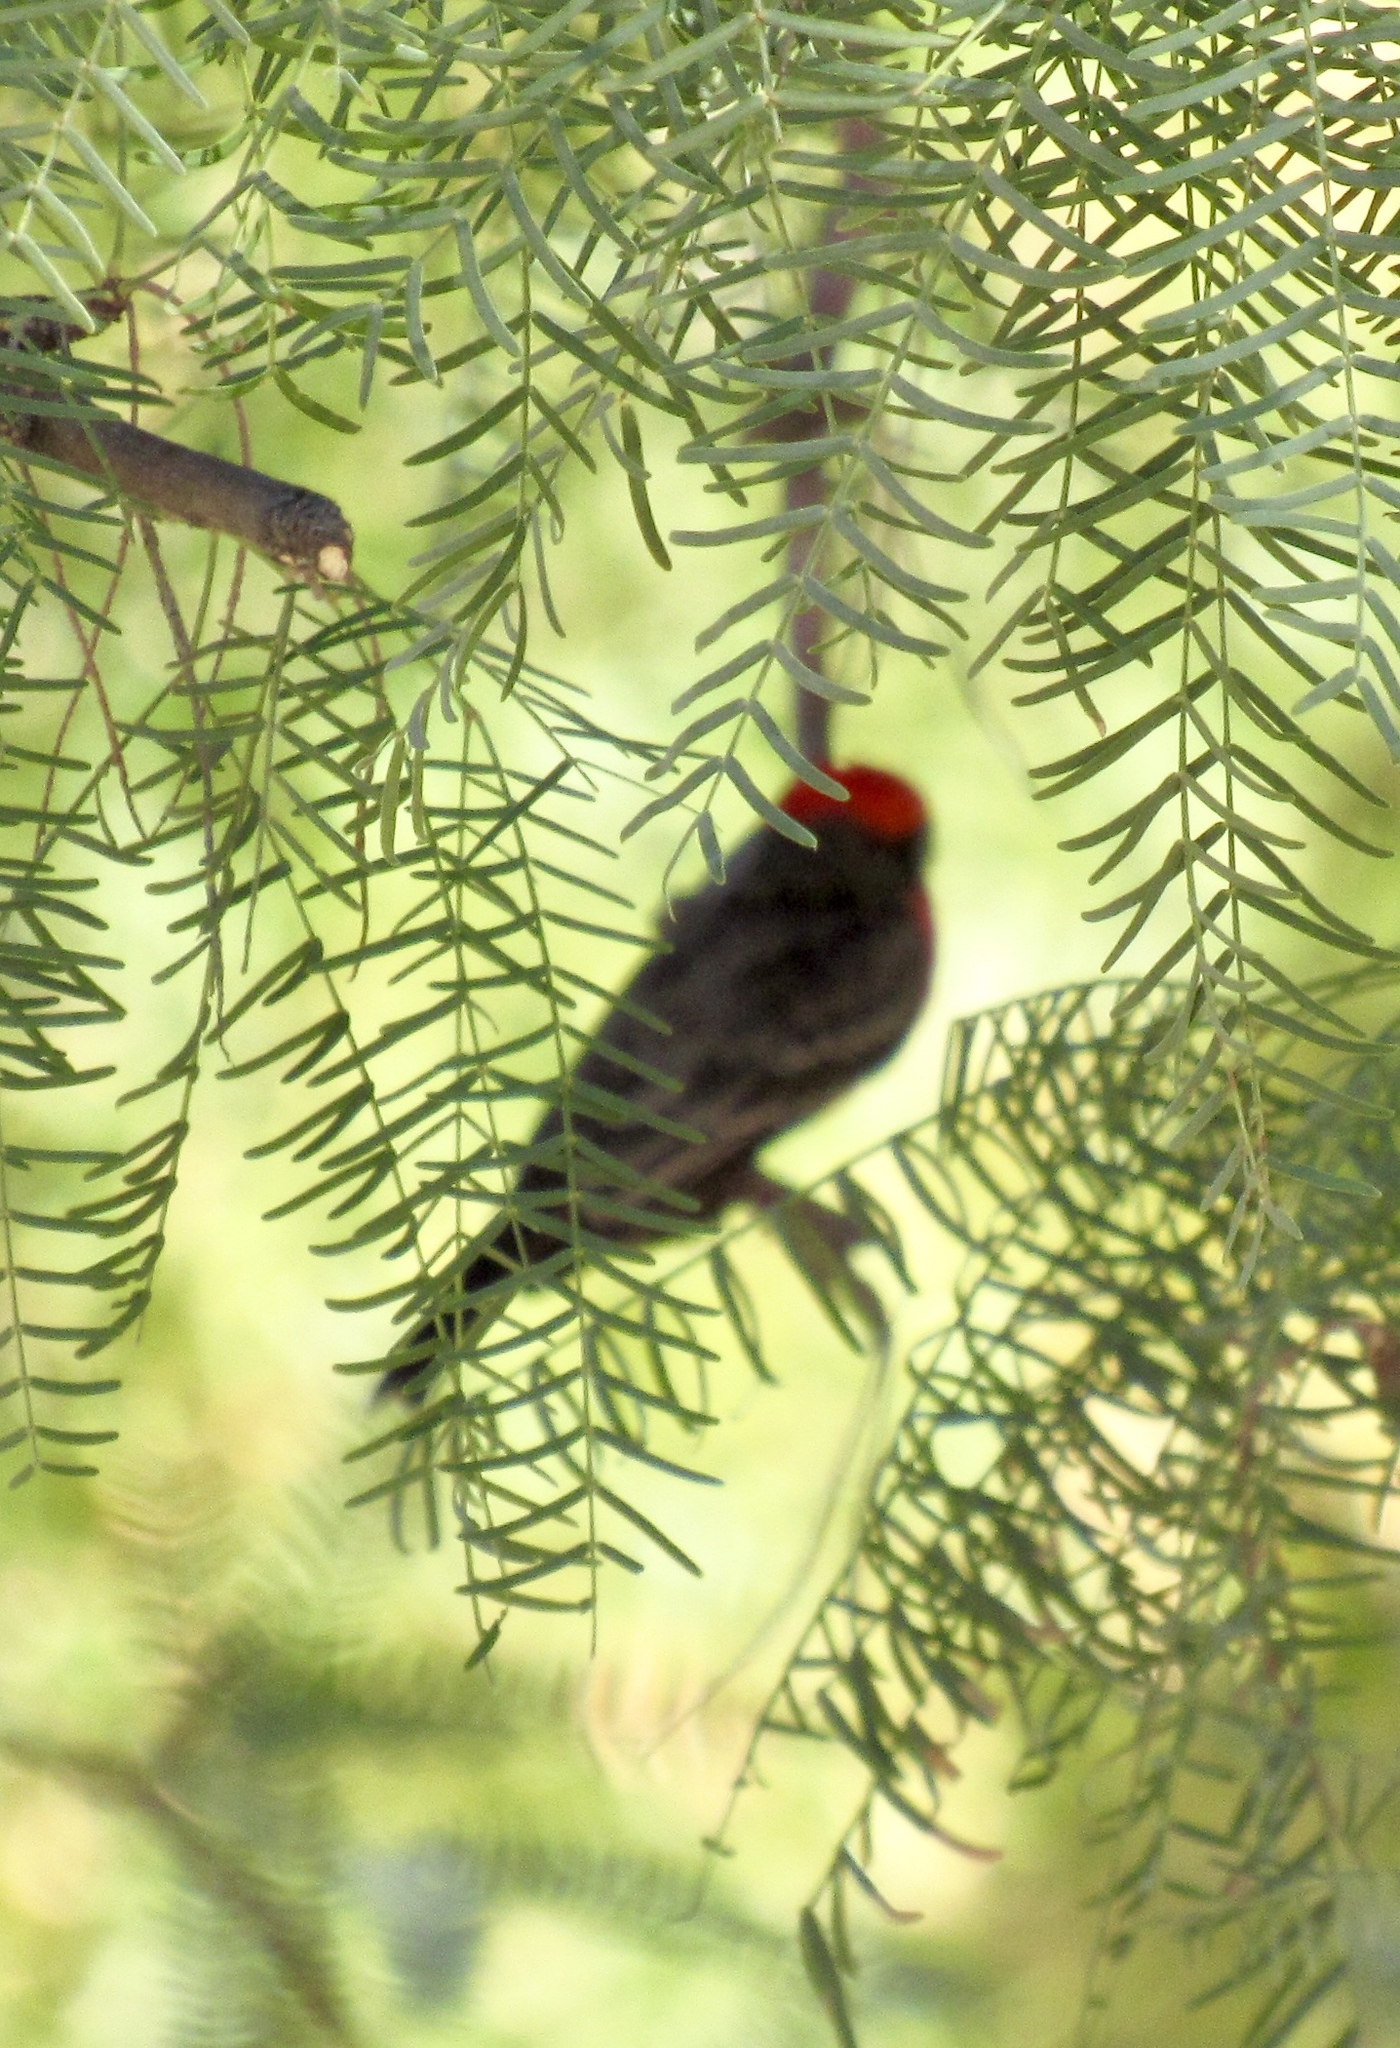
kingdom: Animalia
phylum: Chordata
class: Aves
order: Passeriformes
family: Tyrannidae
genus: Pyrocephalus
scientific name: Pyrocephalus rubinus
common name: Vermilion flycatcher
